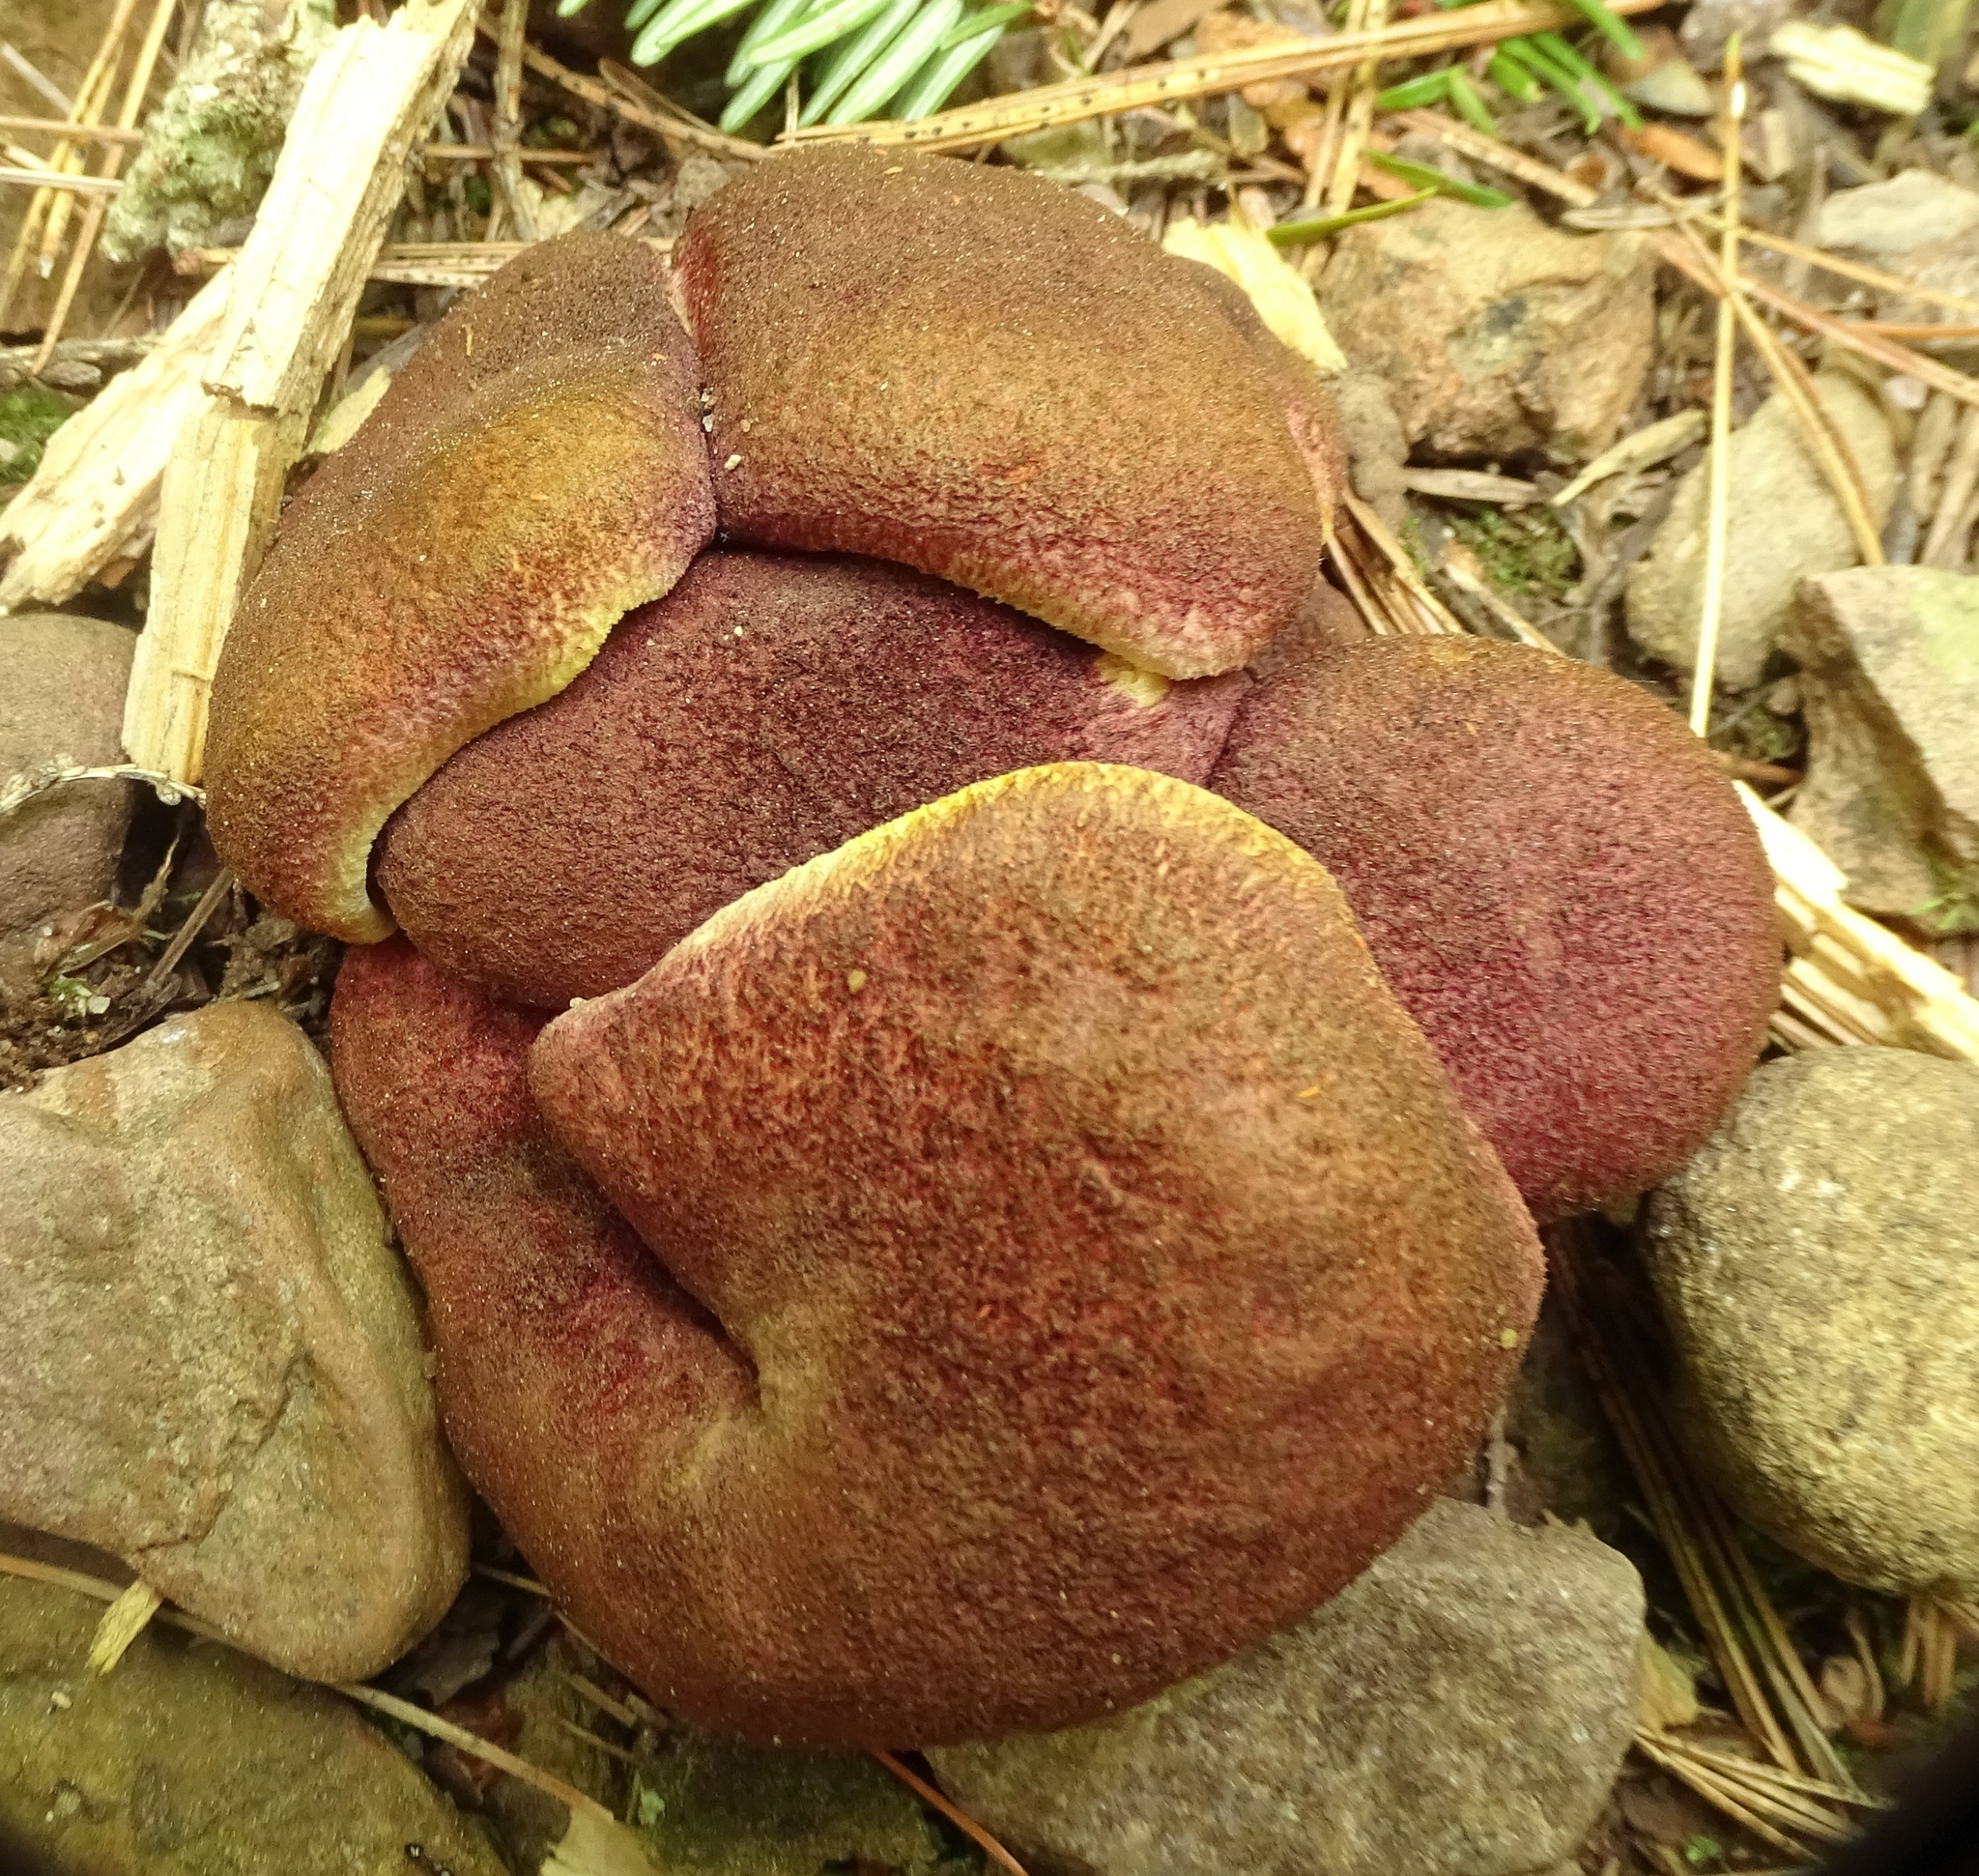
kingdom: Fungi
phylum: Basidiomycota
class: Agaricomycetes
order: Agaricales
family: Tricholomataceae
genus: Tricholomopsis
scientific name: Tricholomopsis rutilans
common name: Plums and custard
